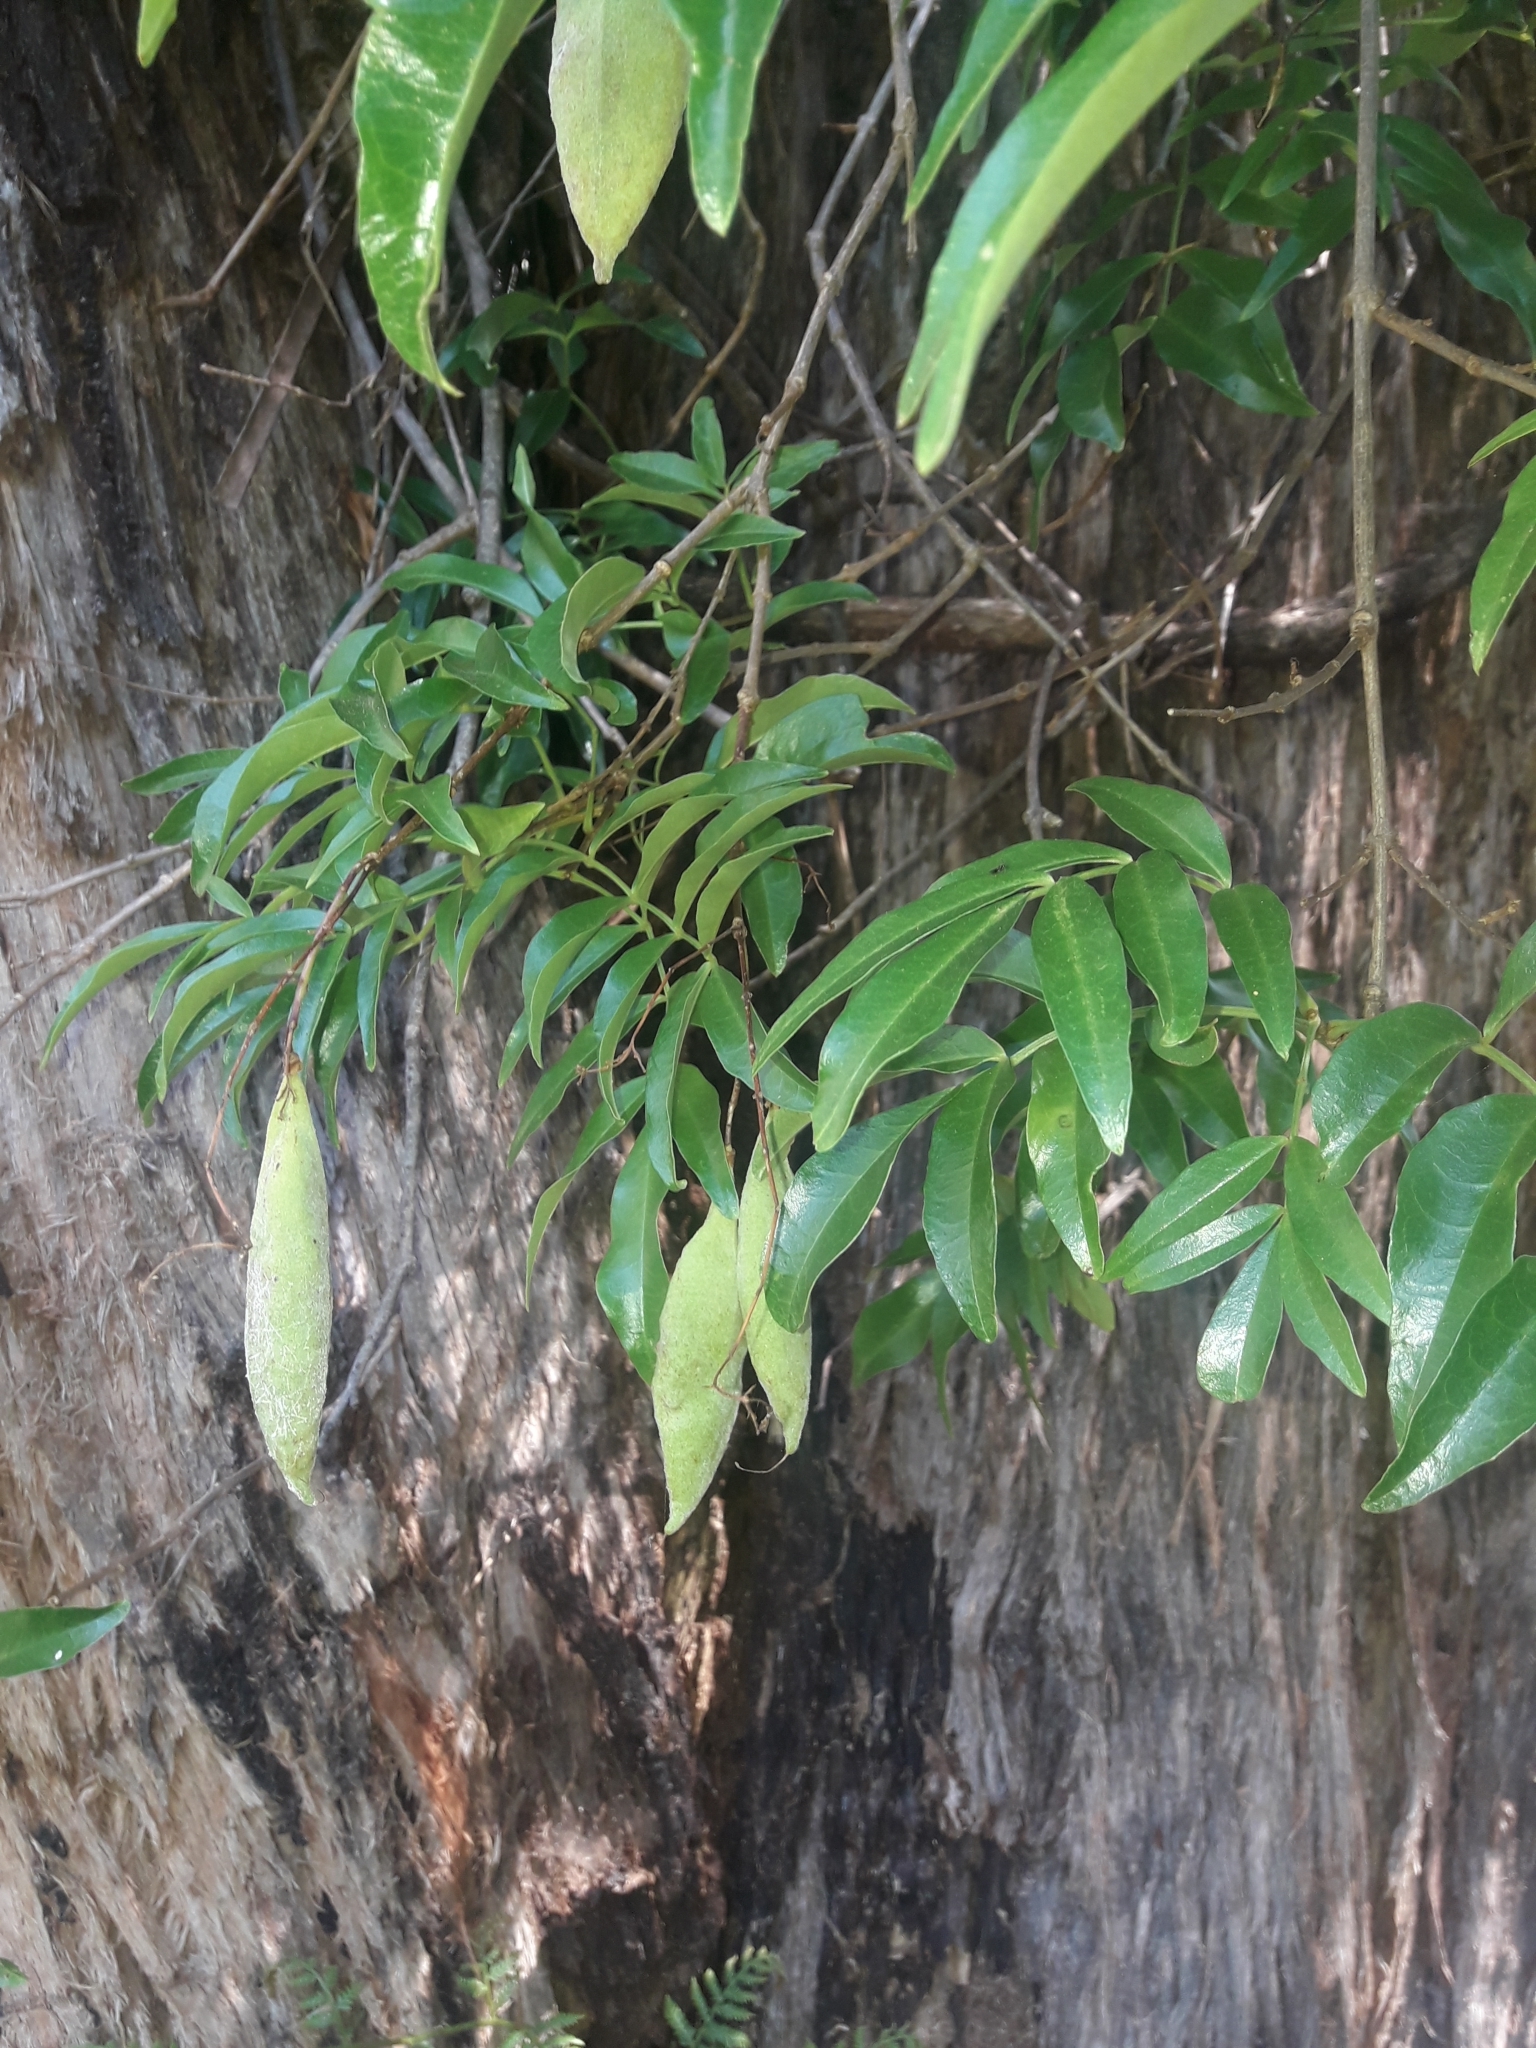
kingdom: Plantae
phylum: Tracheophyta
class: Magnoliopsida
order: Lamiales
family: Bignoniaceae
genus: Pandorea
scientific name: Pandorea pandorana
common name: Wonga-wonga-vine
